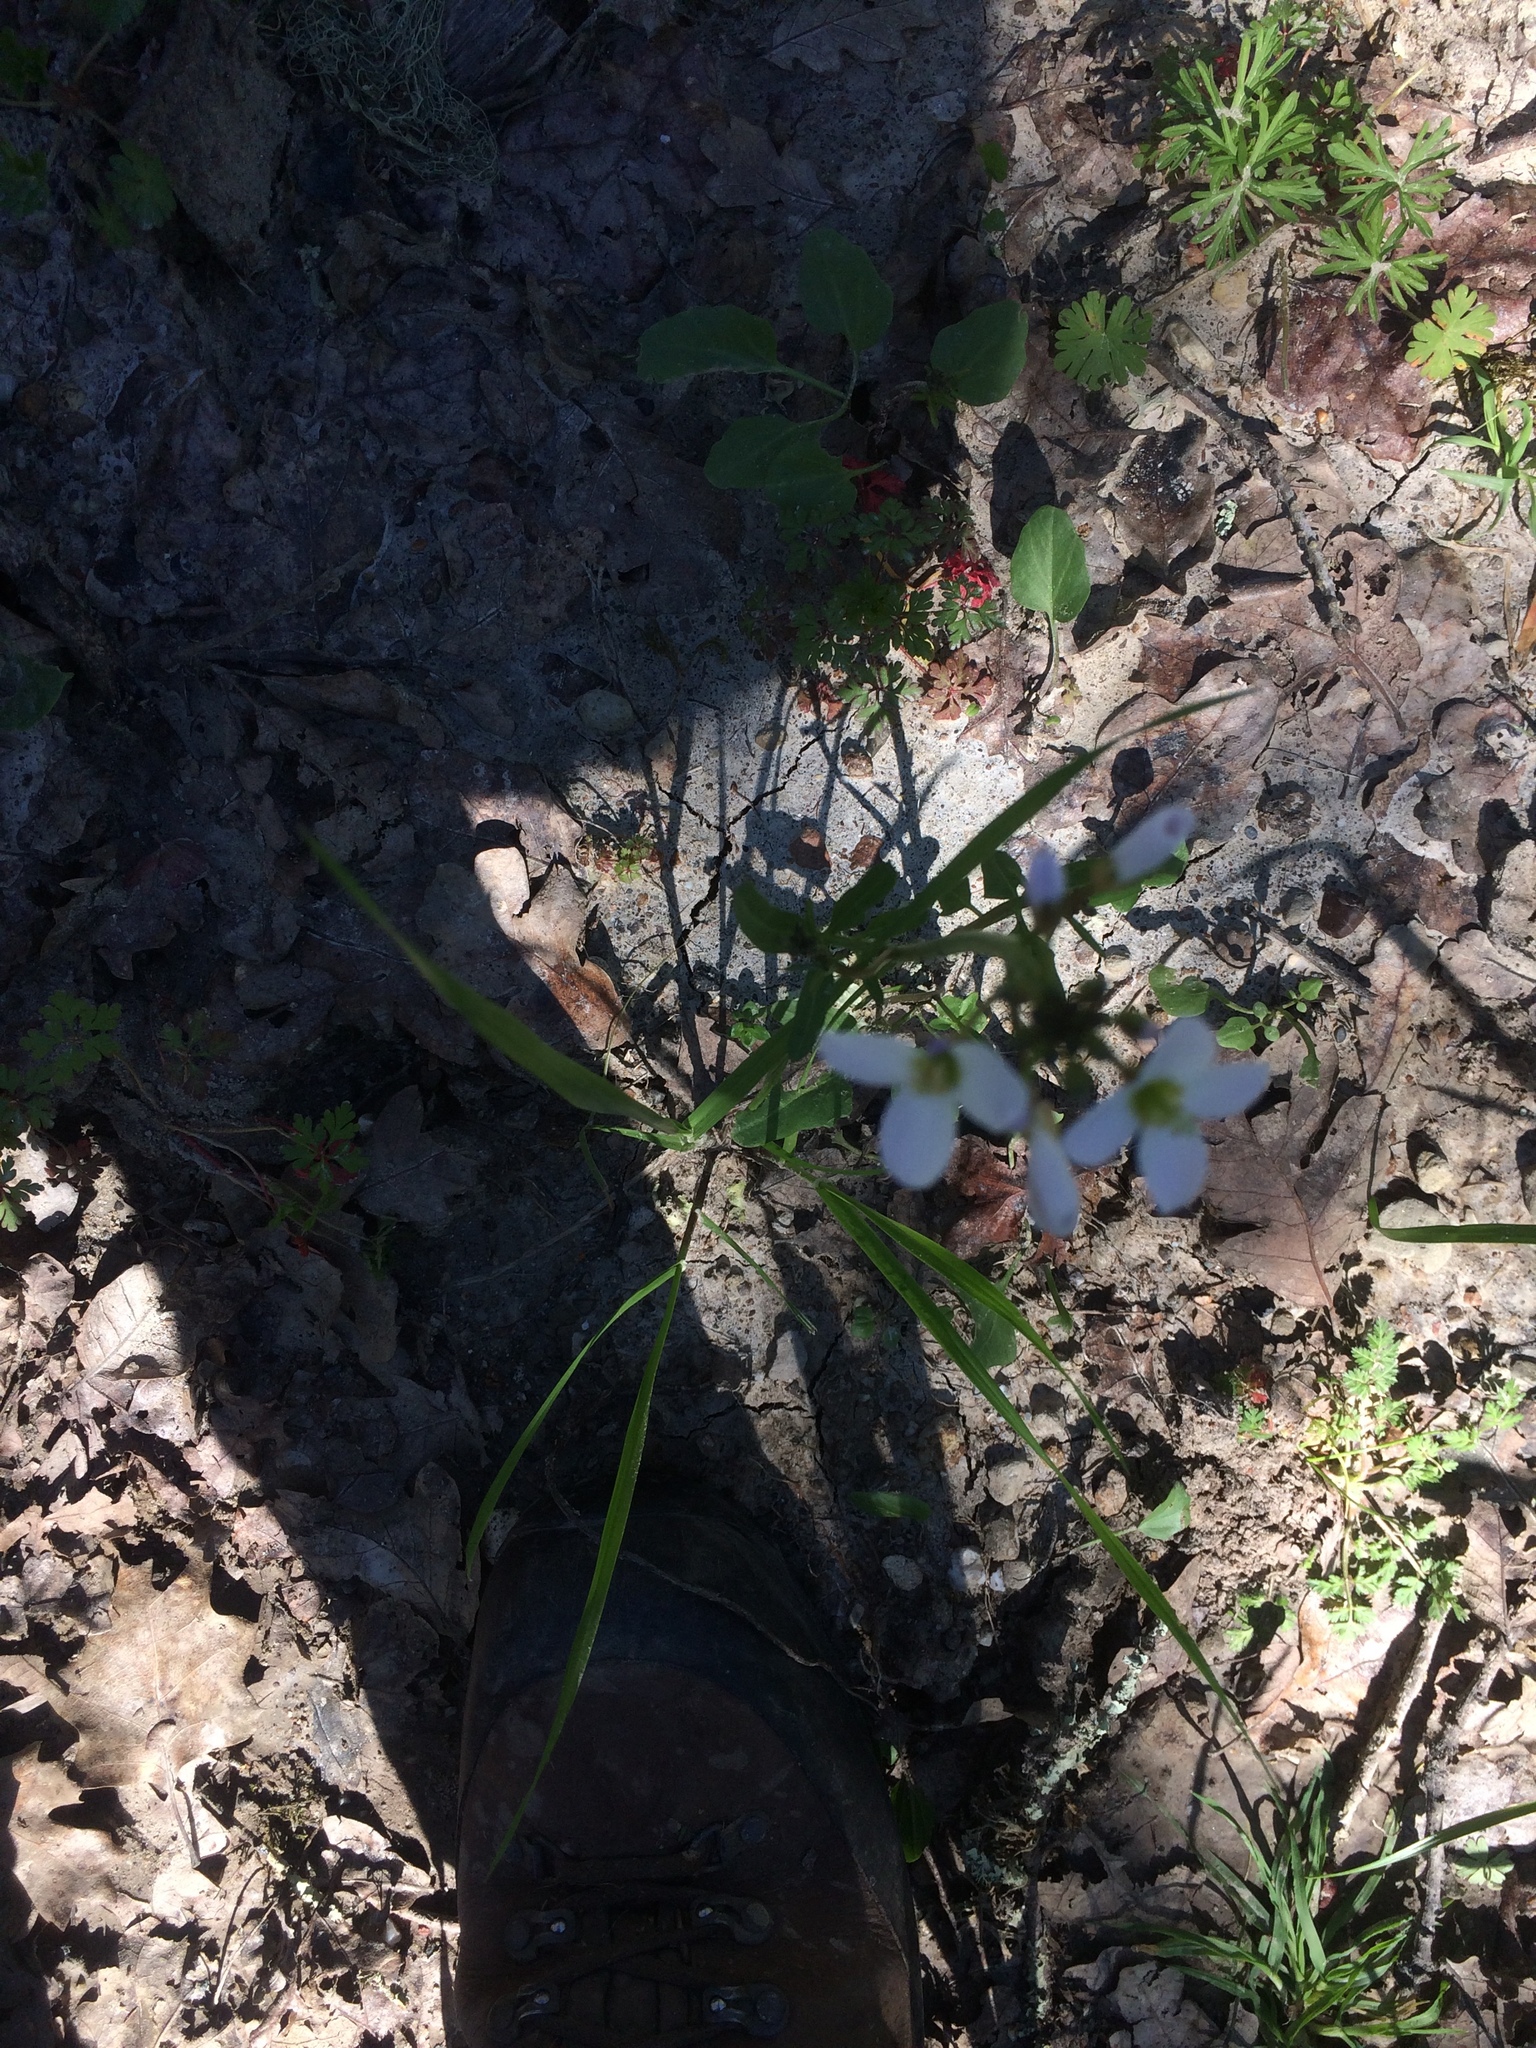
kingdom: Plantae
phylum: Tracheophyta
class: Magnoliopsida
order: Brassicales
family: Brassicaceae
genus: Cardamine
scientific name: Cardamine californica
